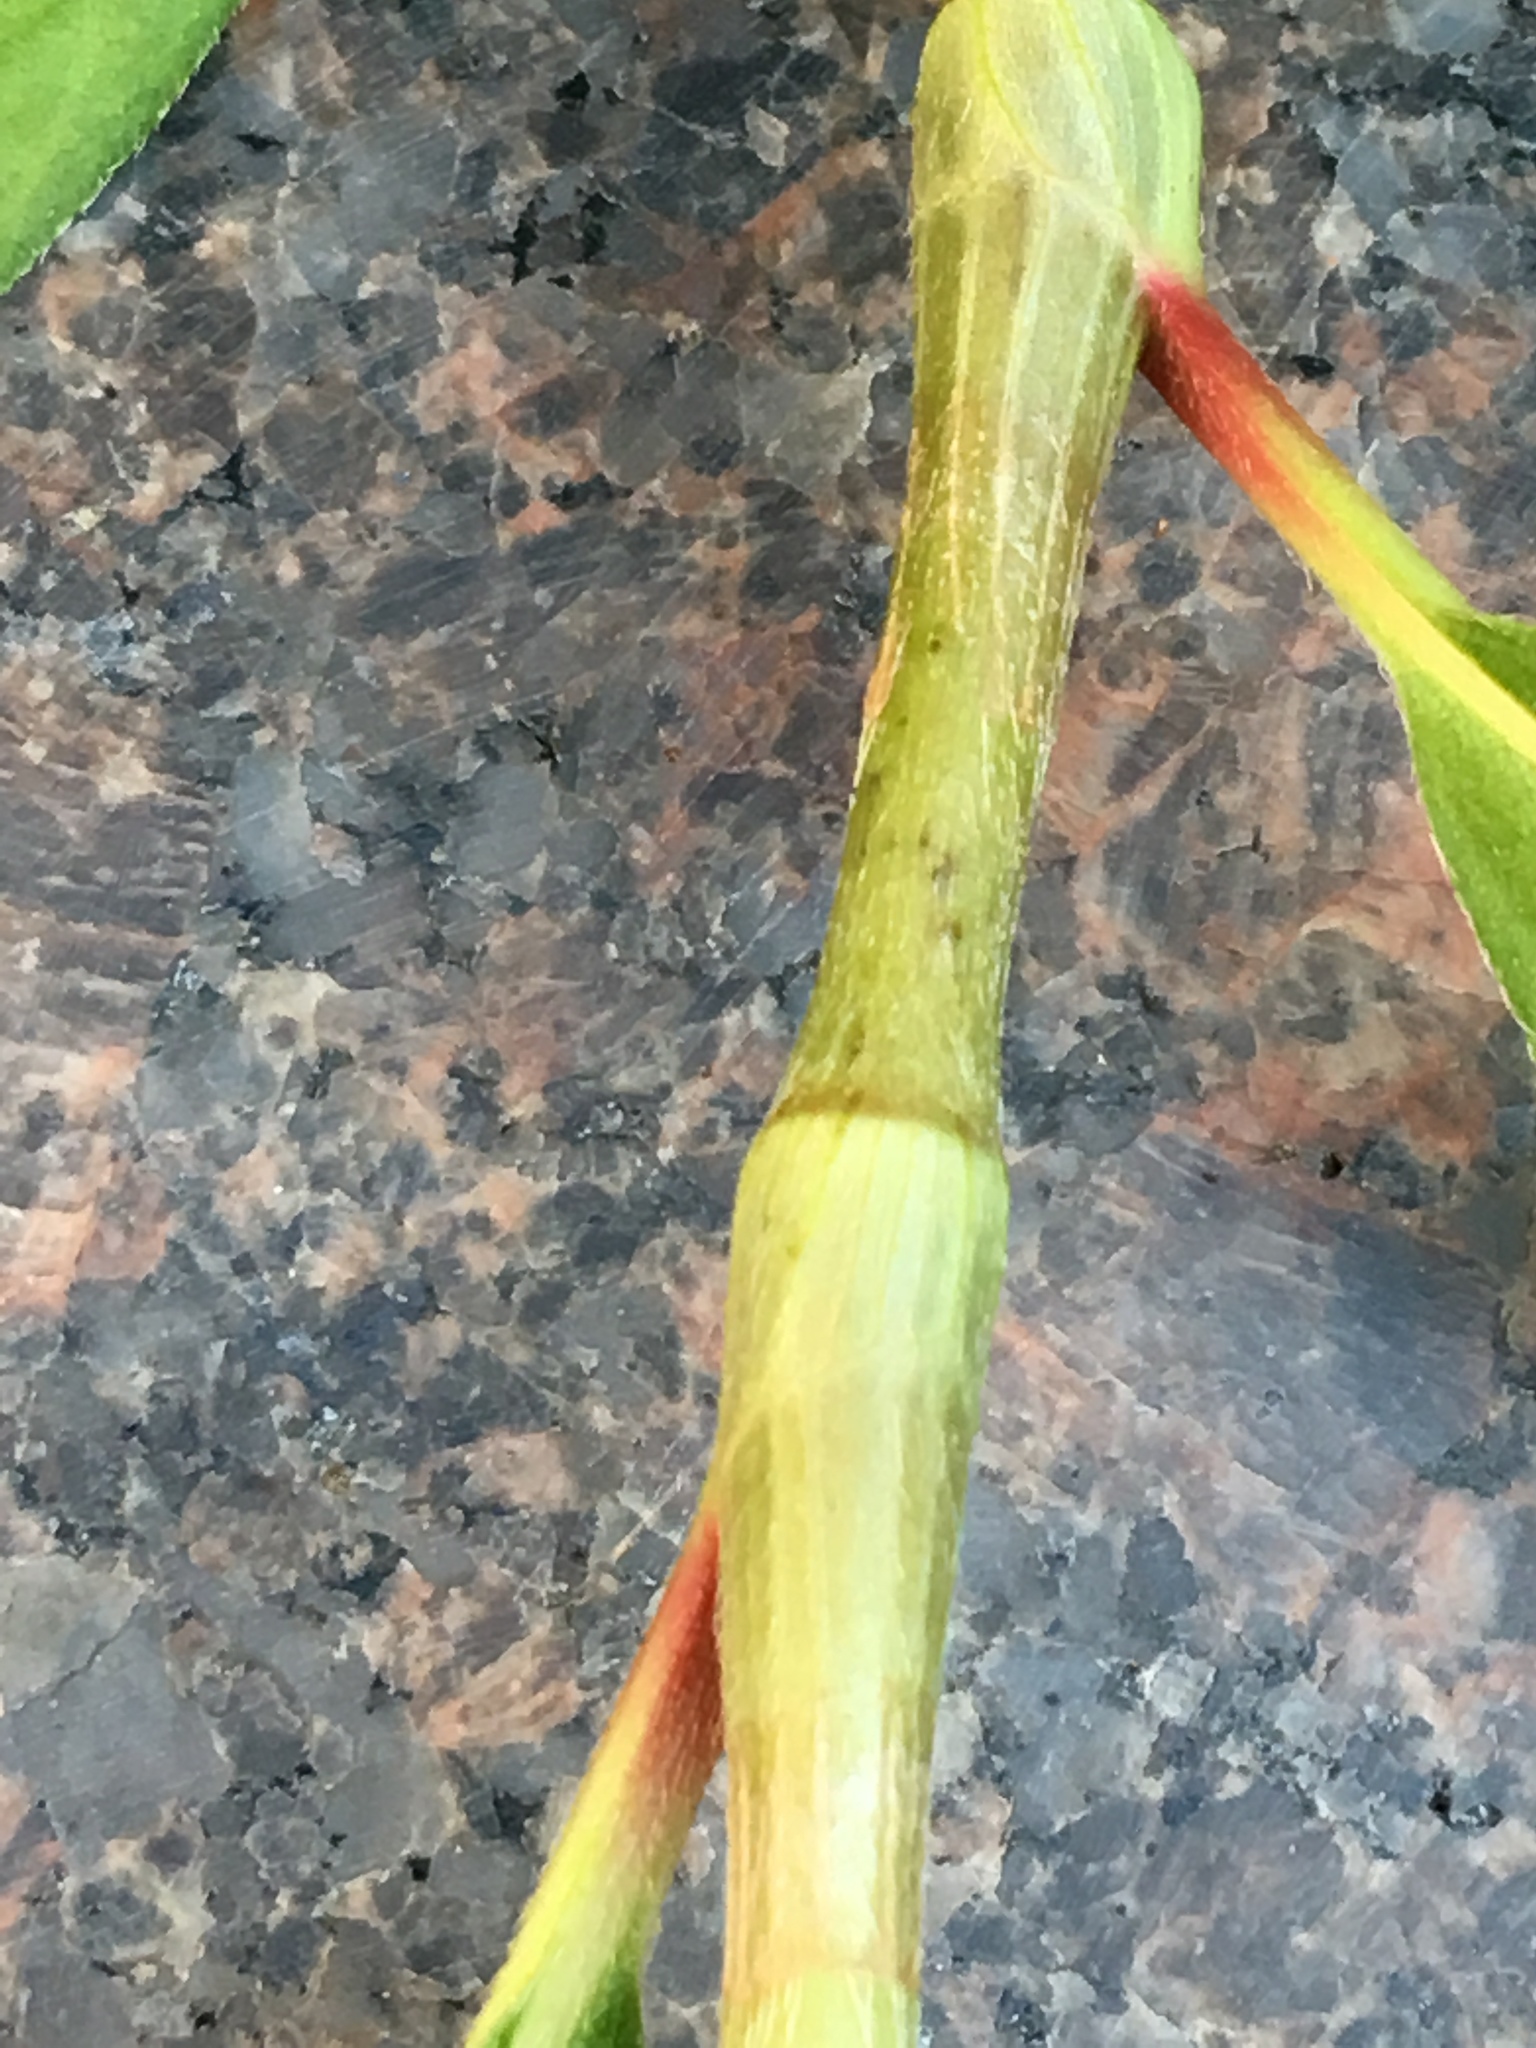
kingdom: Plantae
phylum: Tracheophyta
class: Magnoliopsida
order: Caryophyllales
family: Polygonaceae
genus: Persicaria
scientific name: Persicaria extremiorientalis
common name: Far-eastern smartweed
